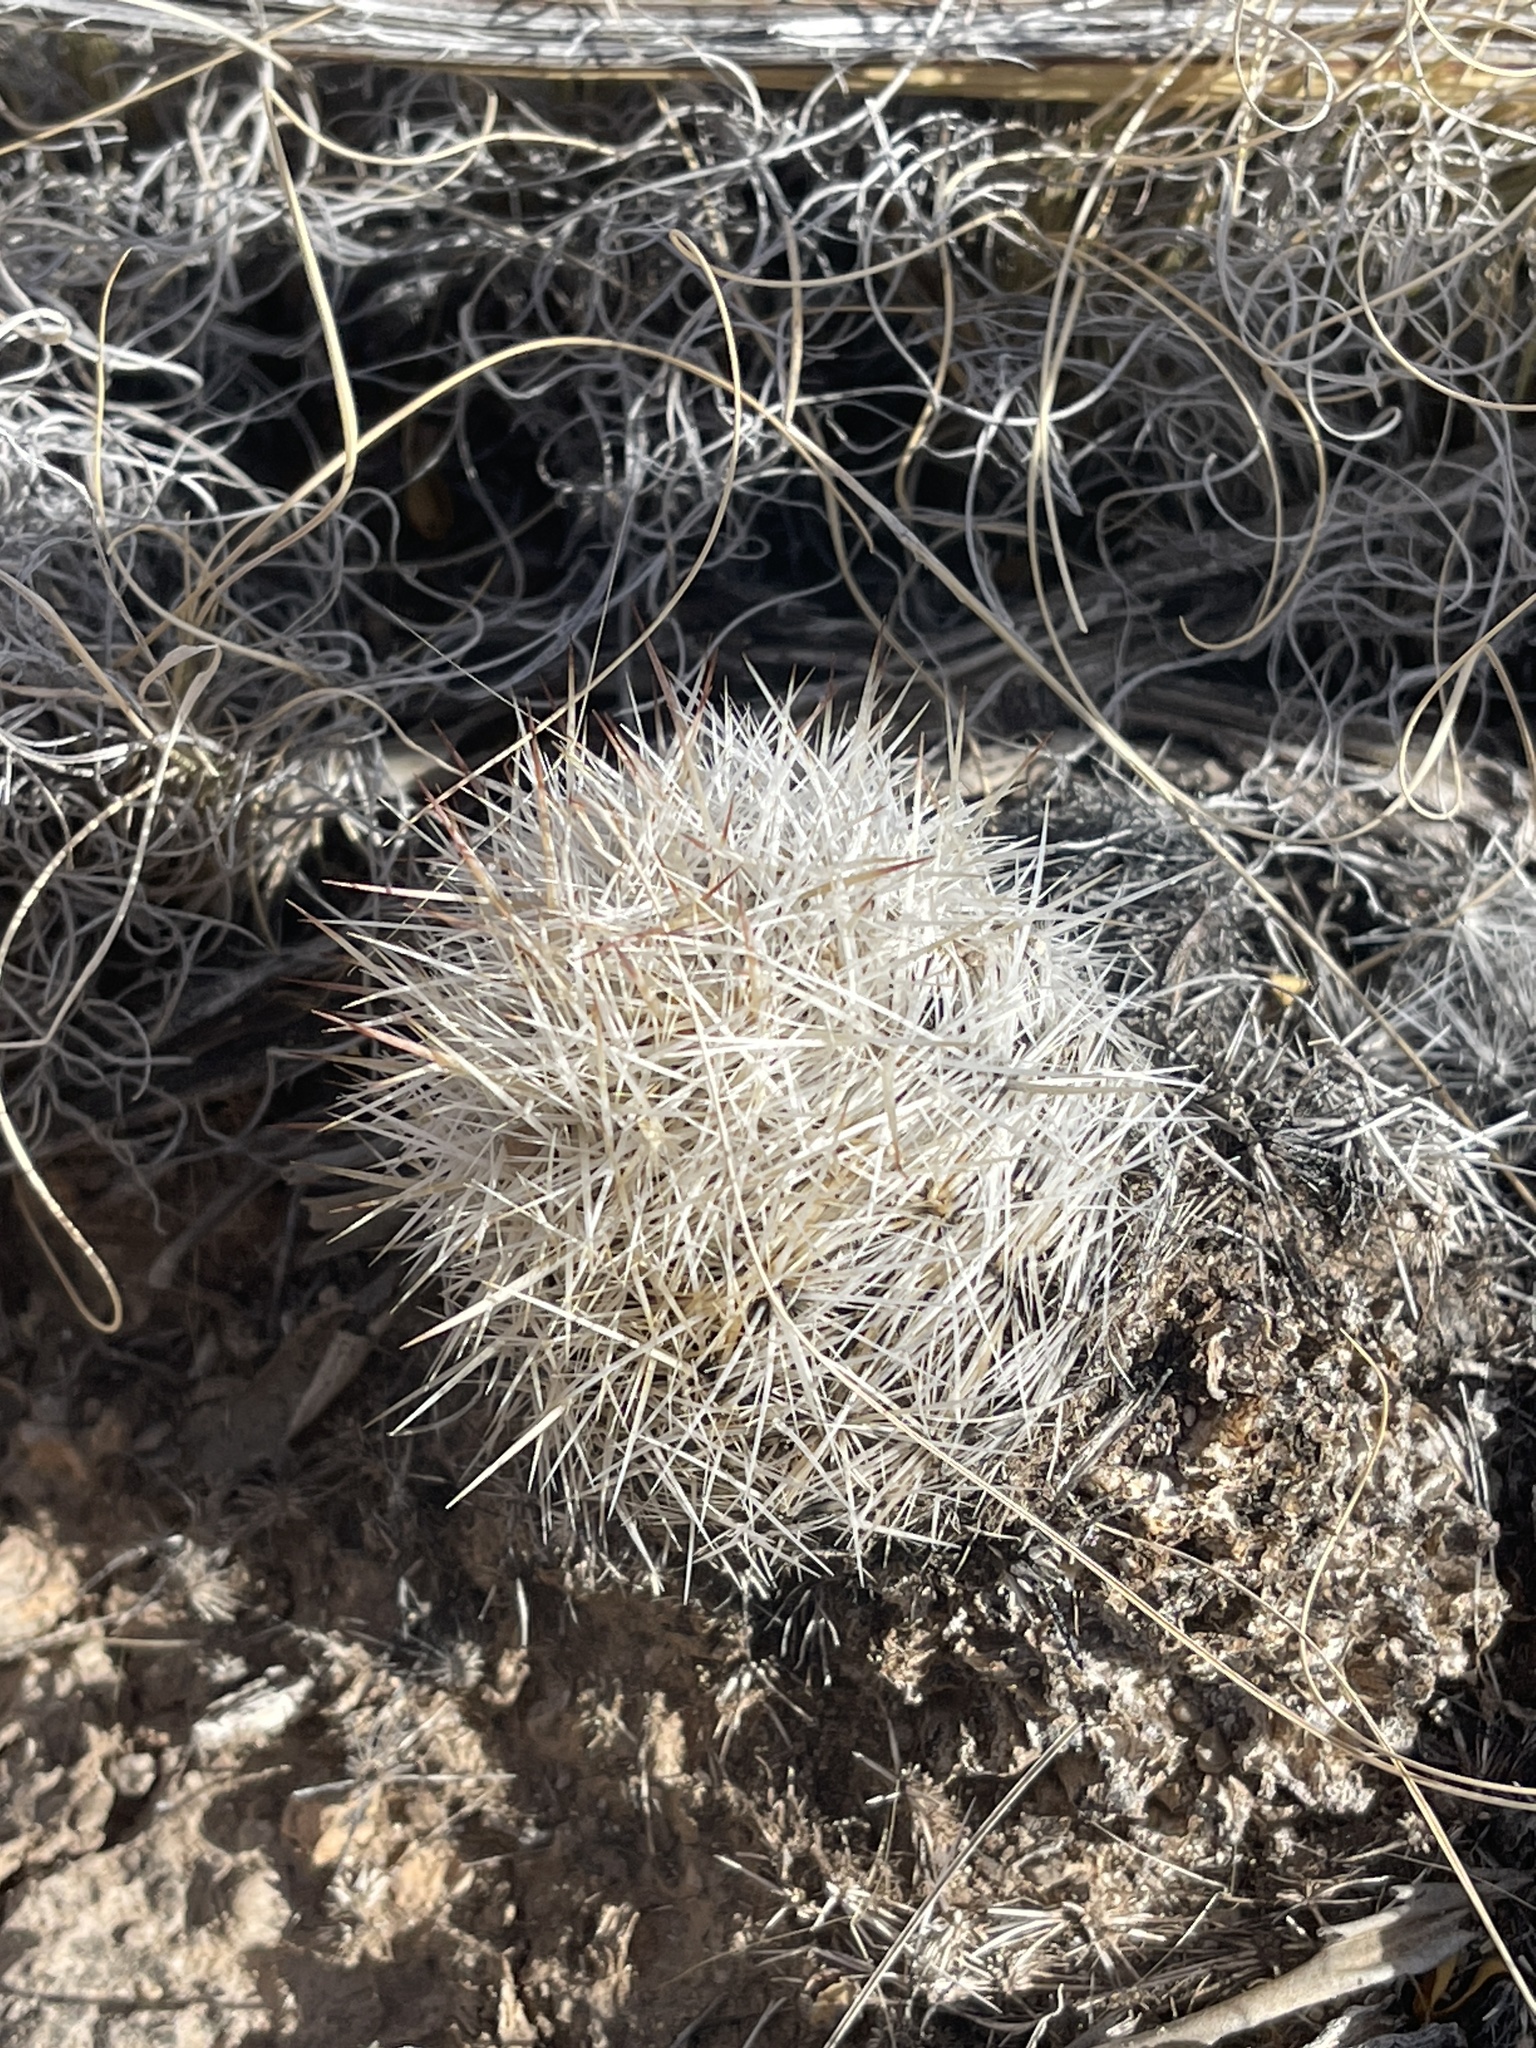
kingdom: Plantae
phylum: Tracheophyta
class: Magnoliopsida
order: Caryophyllales
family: Cactaceae
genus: Pelecyphora
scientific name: Pelecyphora vivipara
